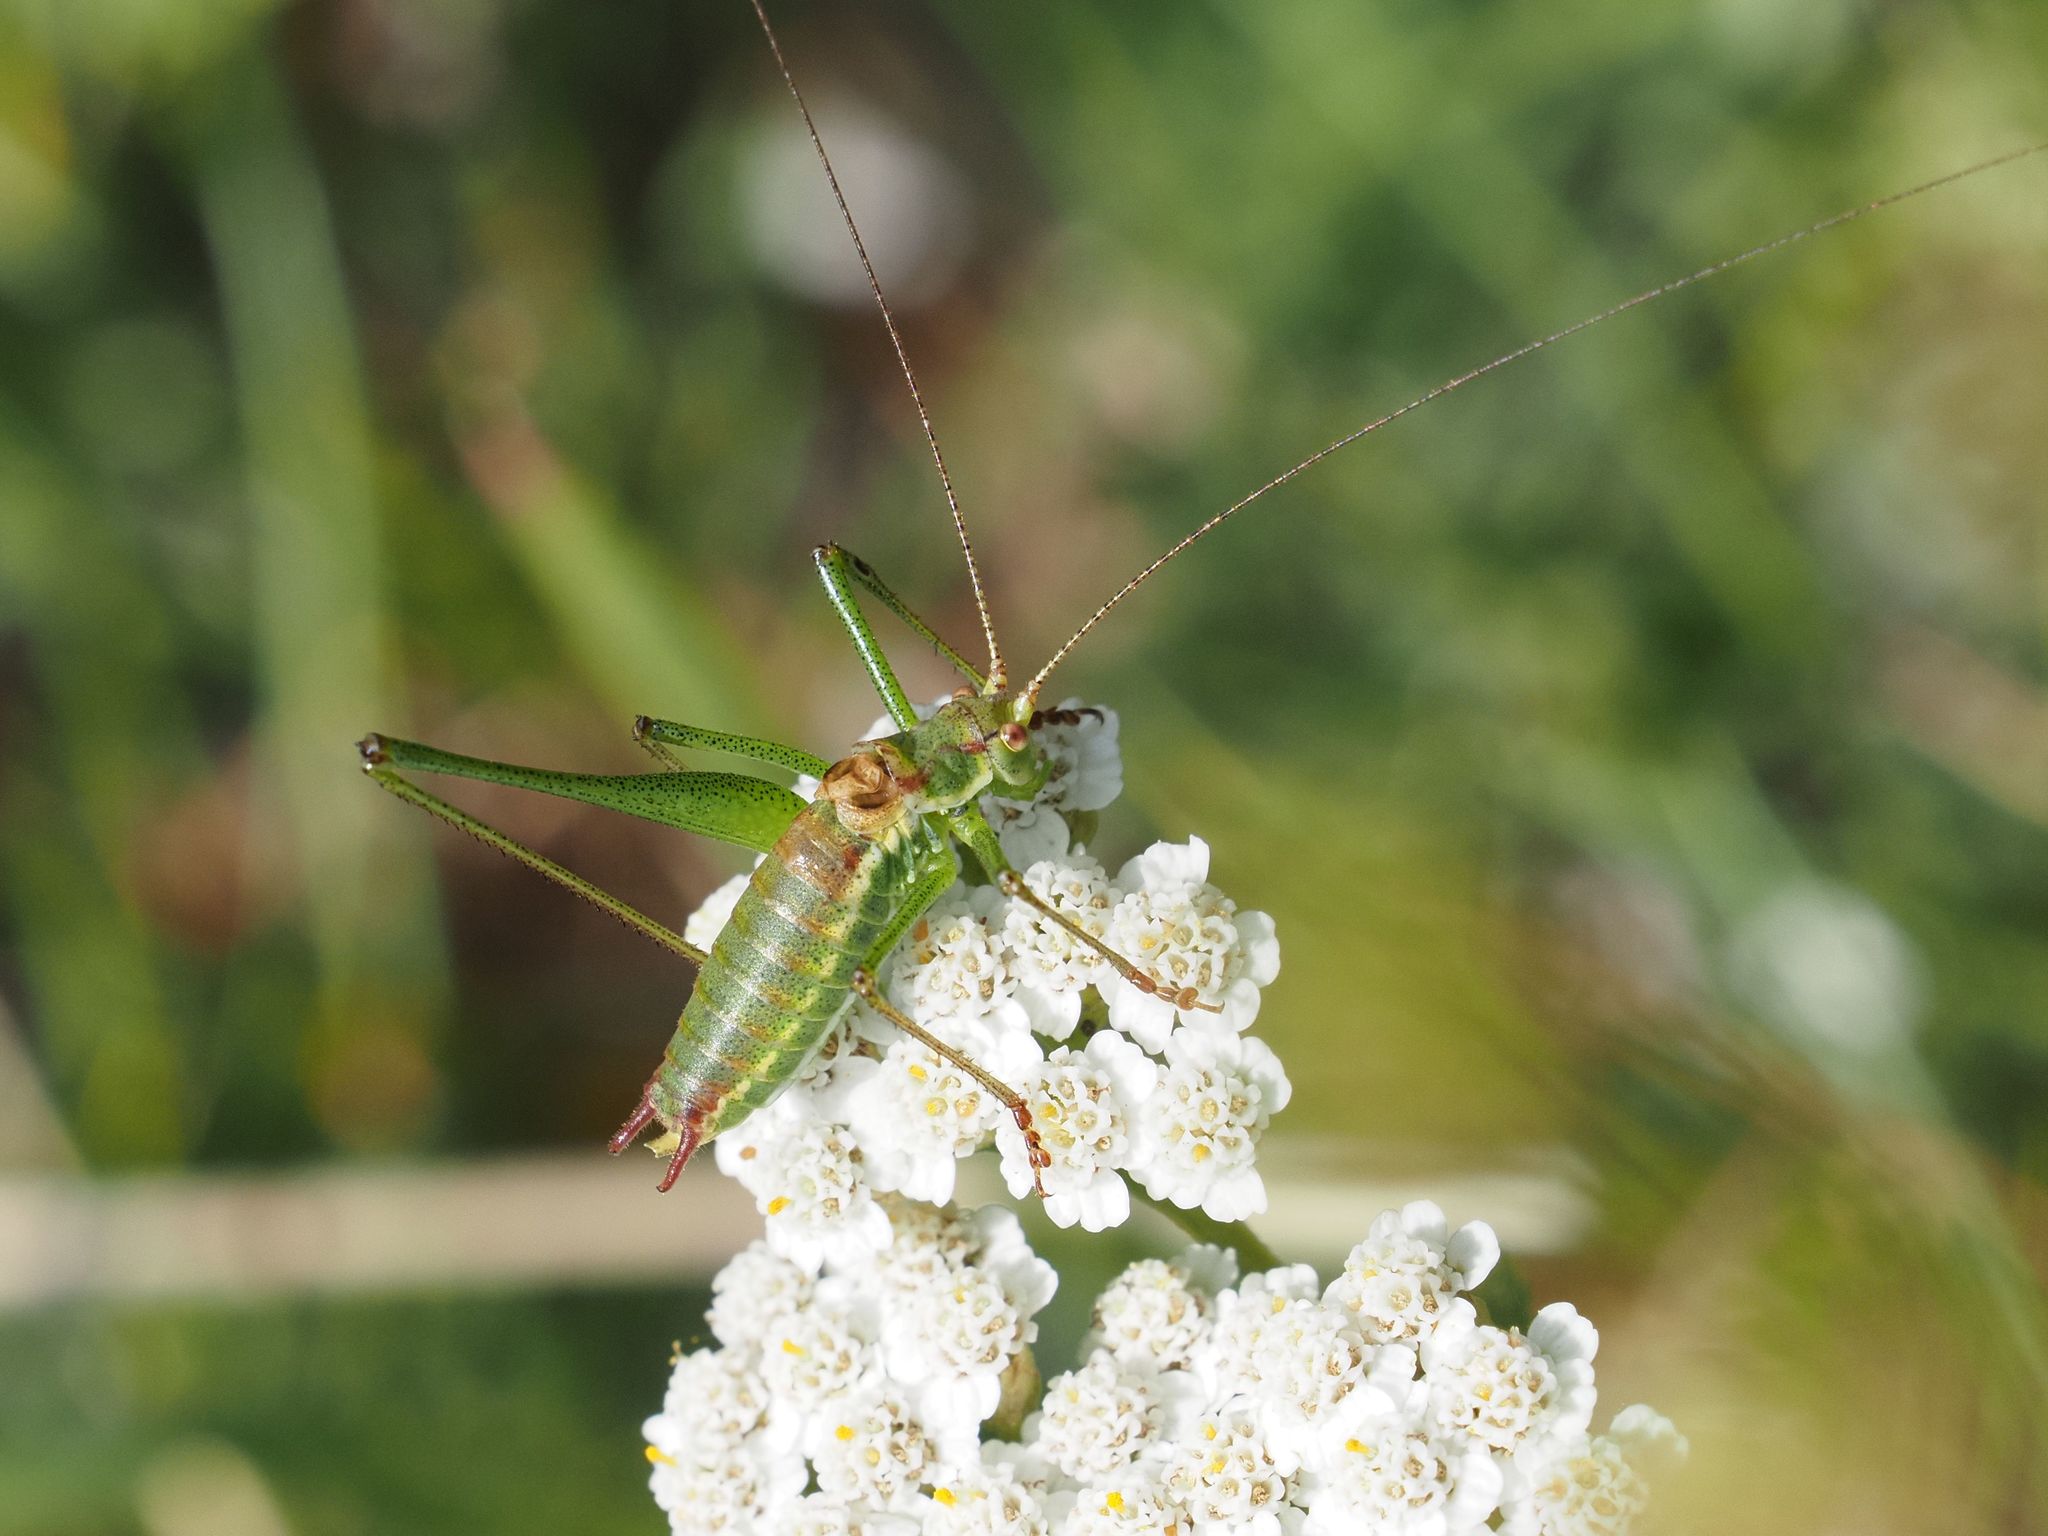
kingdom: Animalia
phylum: Arthropoda
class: Insecta
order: Orthoptera
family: Tettigoniidae
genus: Leptophyes
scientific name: Leptophyes albovittata
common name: Striped bush-cricket
